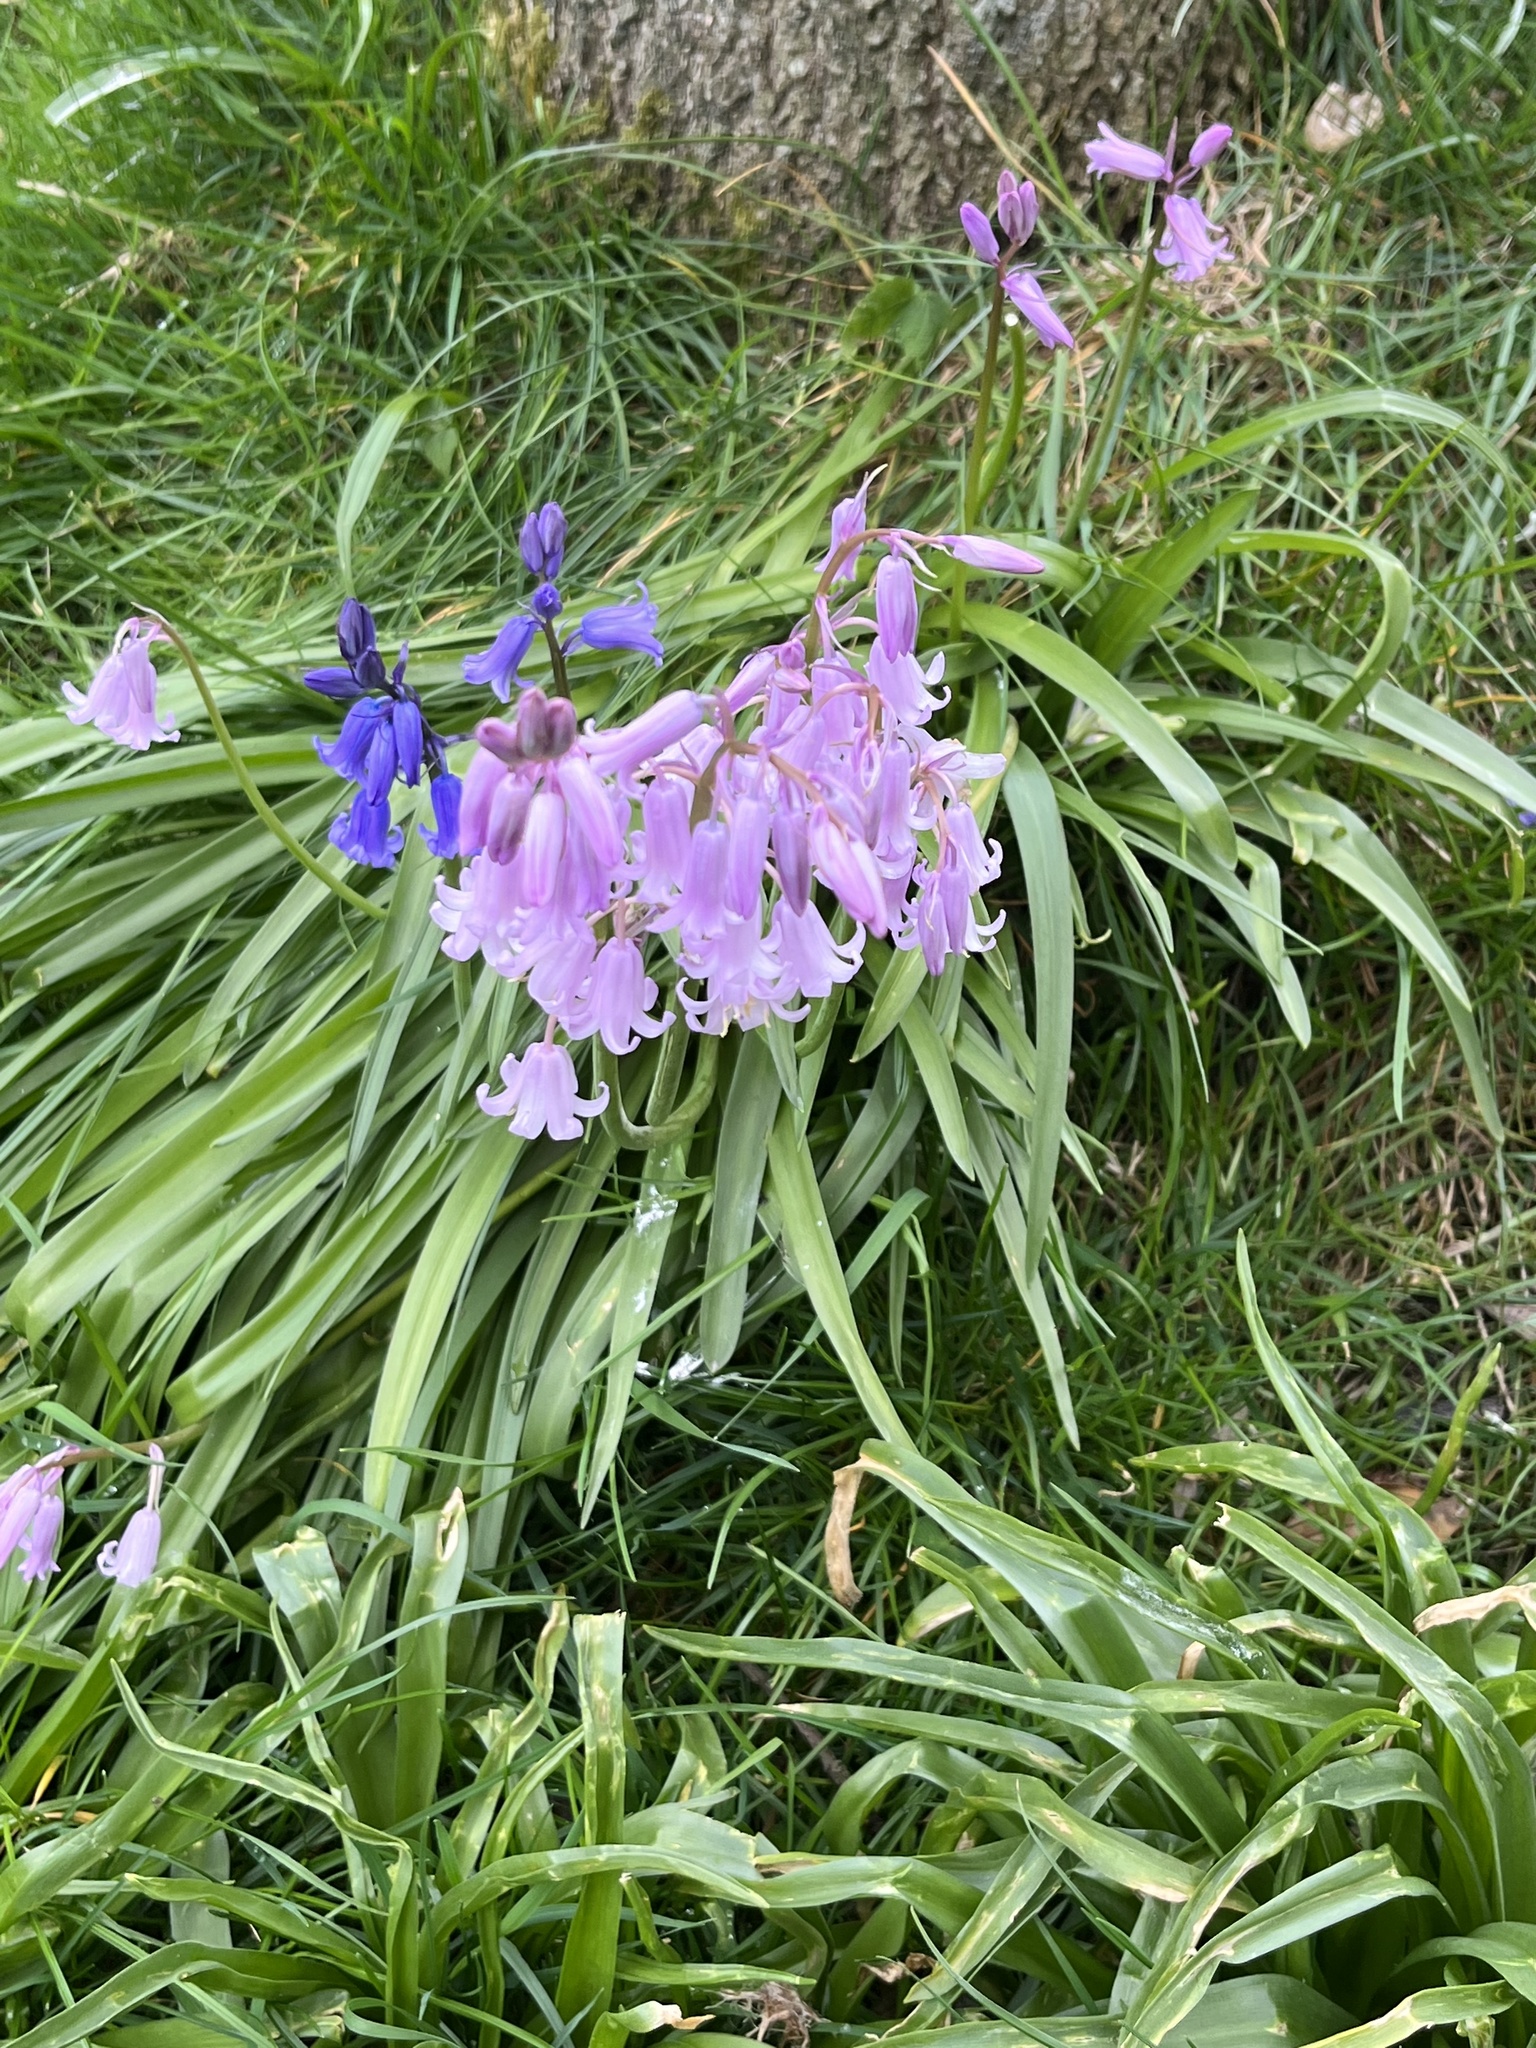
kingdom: Plantae
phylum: Tracheophyta
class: Liliopsida
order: Asparagales
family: Asparagaceae
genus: Hyacinthoides
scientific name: Hyacinthoides hispanica
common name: Spanish bluebell
